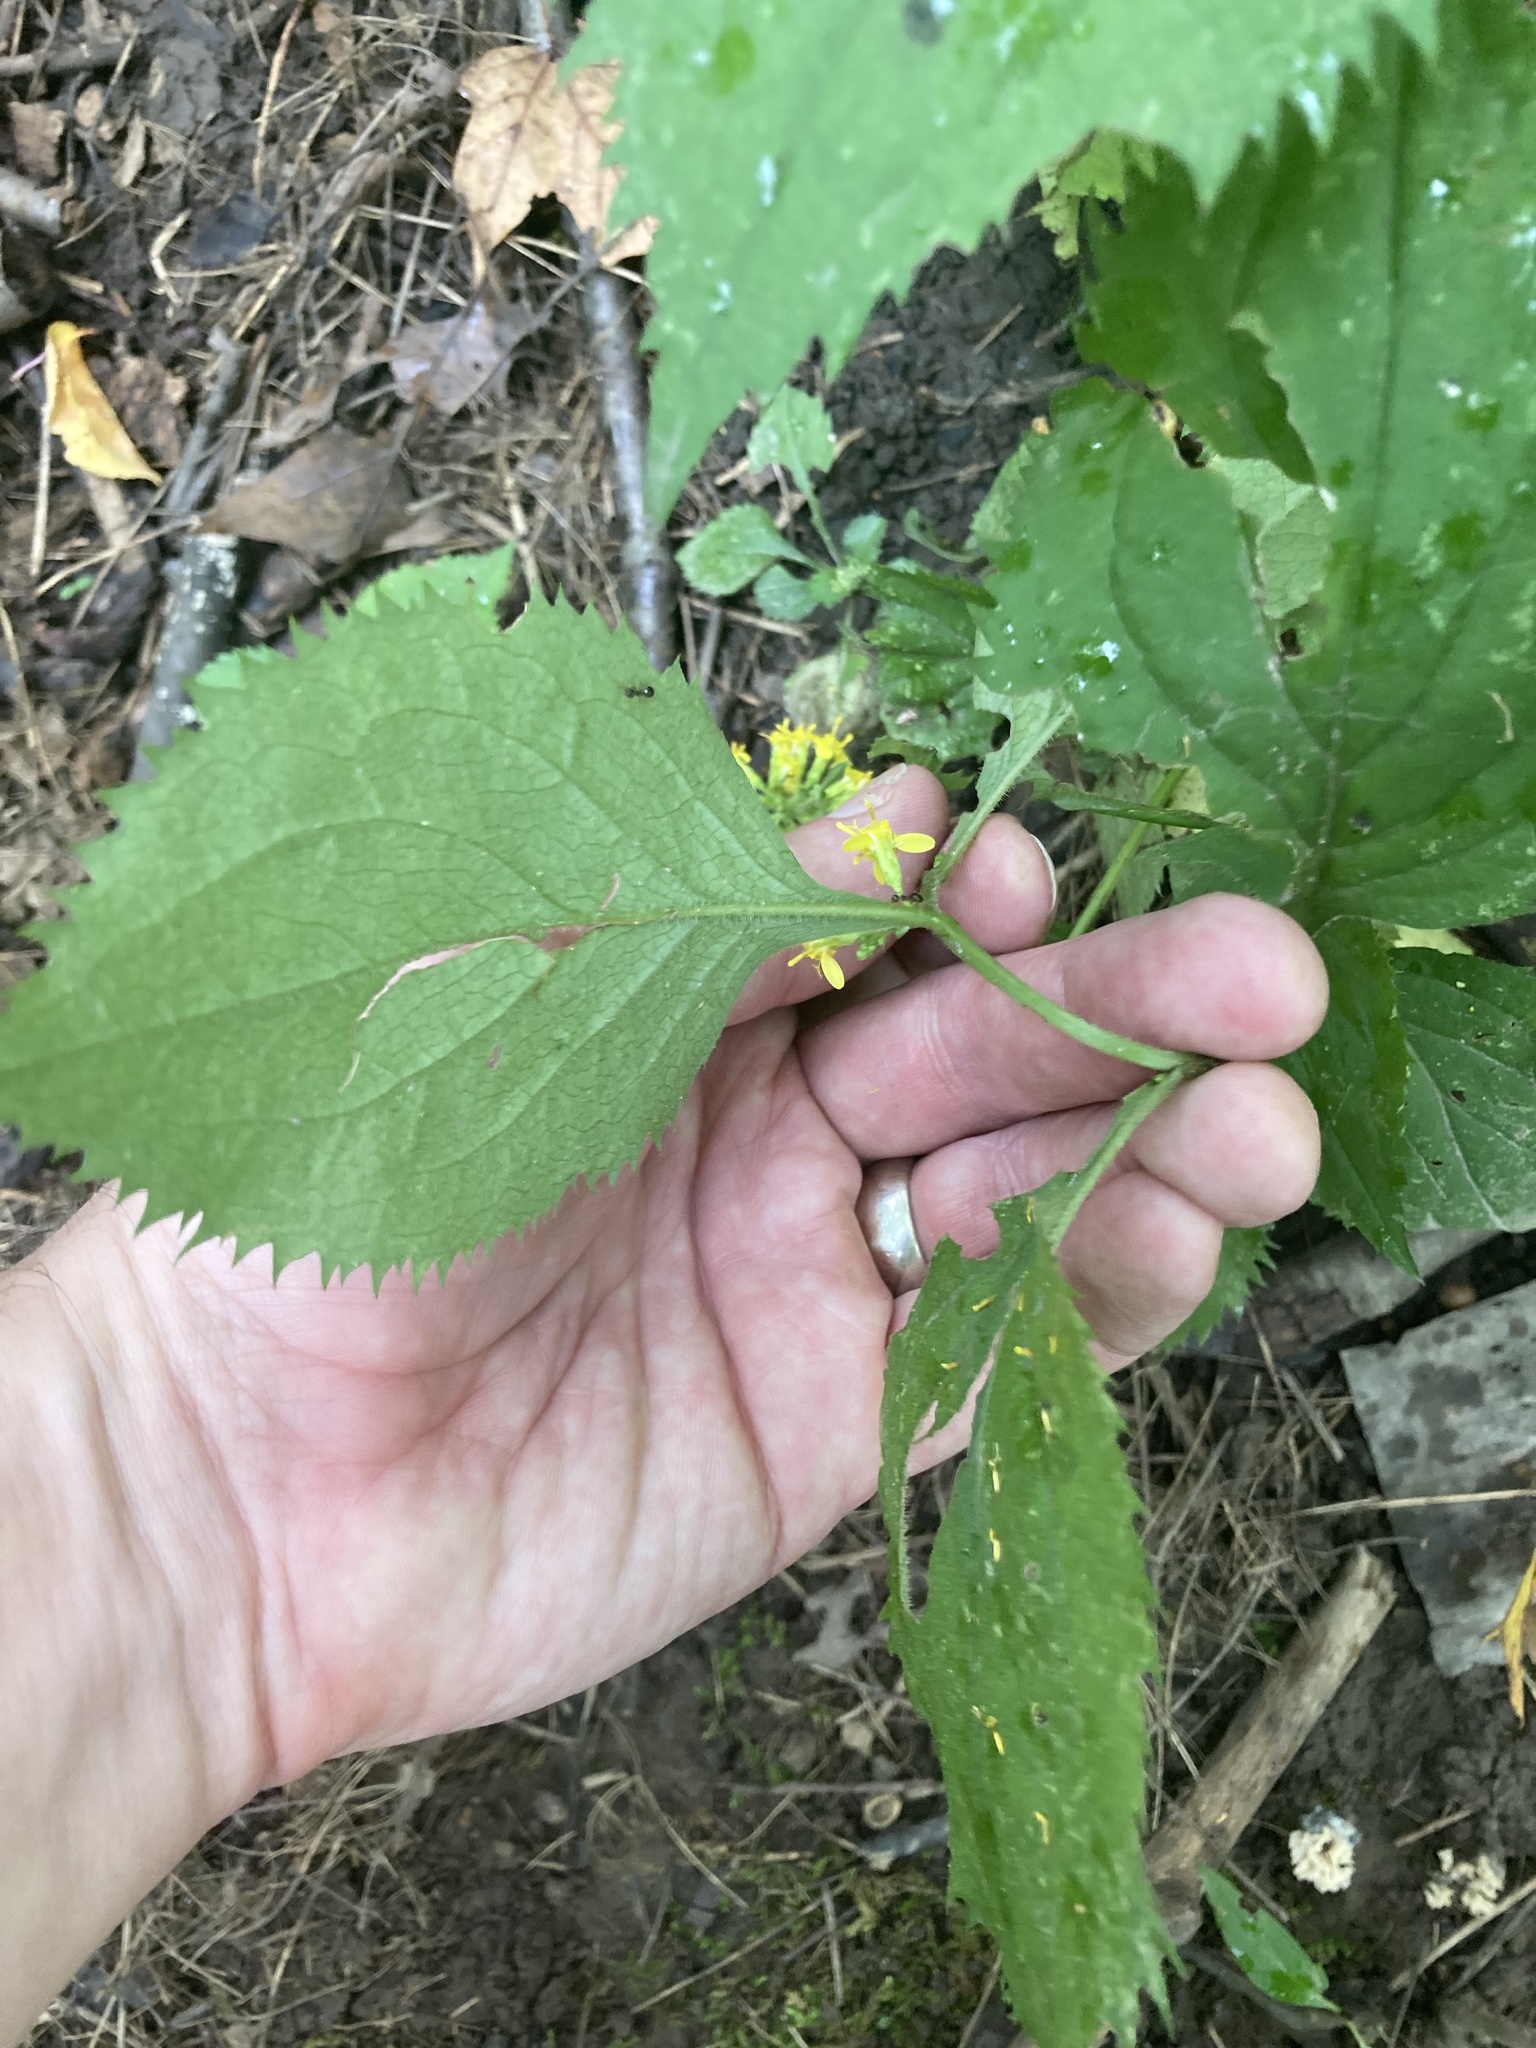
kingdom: Plantae
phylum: Tracheophyta
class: Magnoliopsida
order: Asterales
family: Asteraceae
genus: Solidago
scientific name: Solidago flexicaulis
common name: Zig-zag goldenrod
